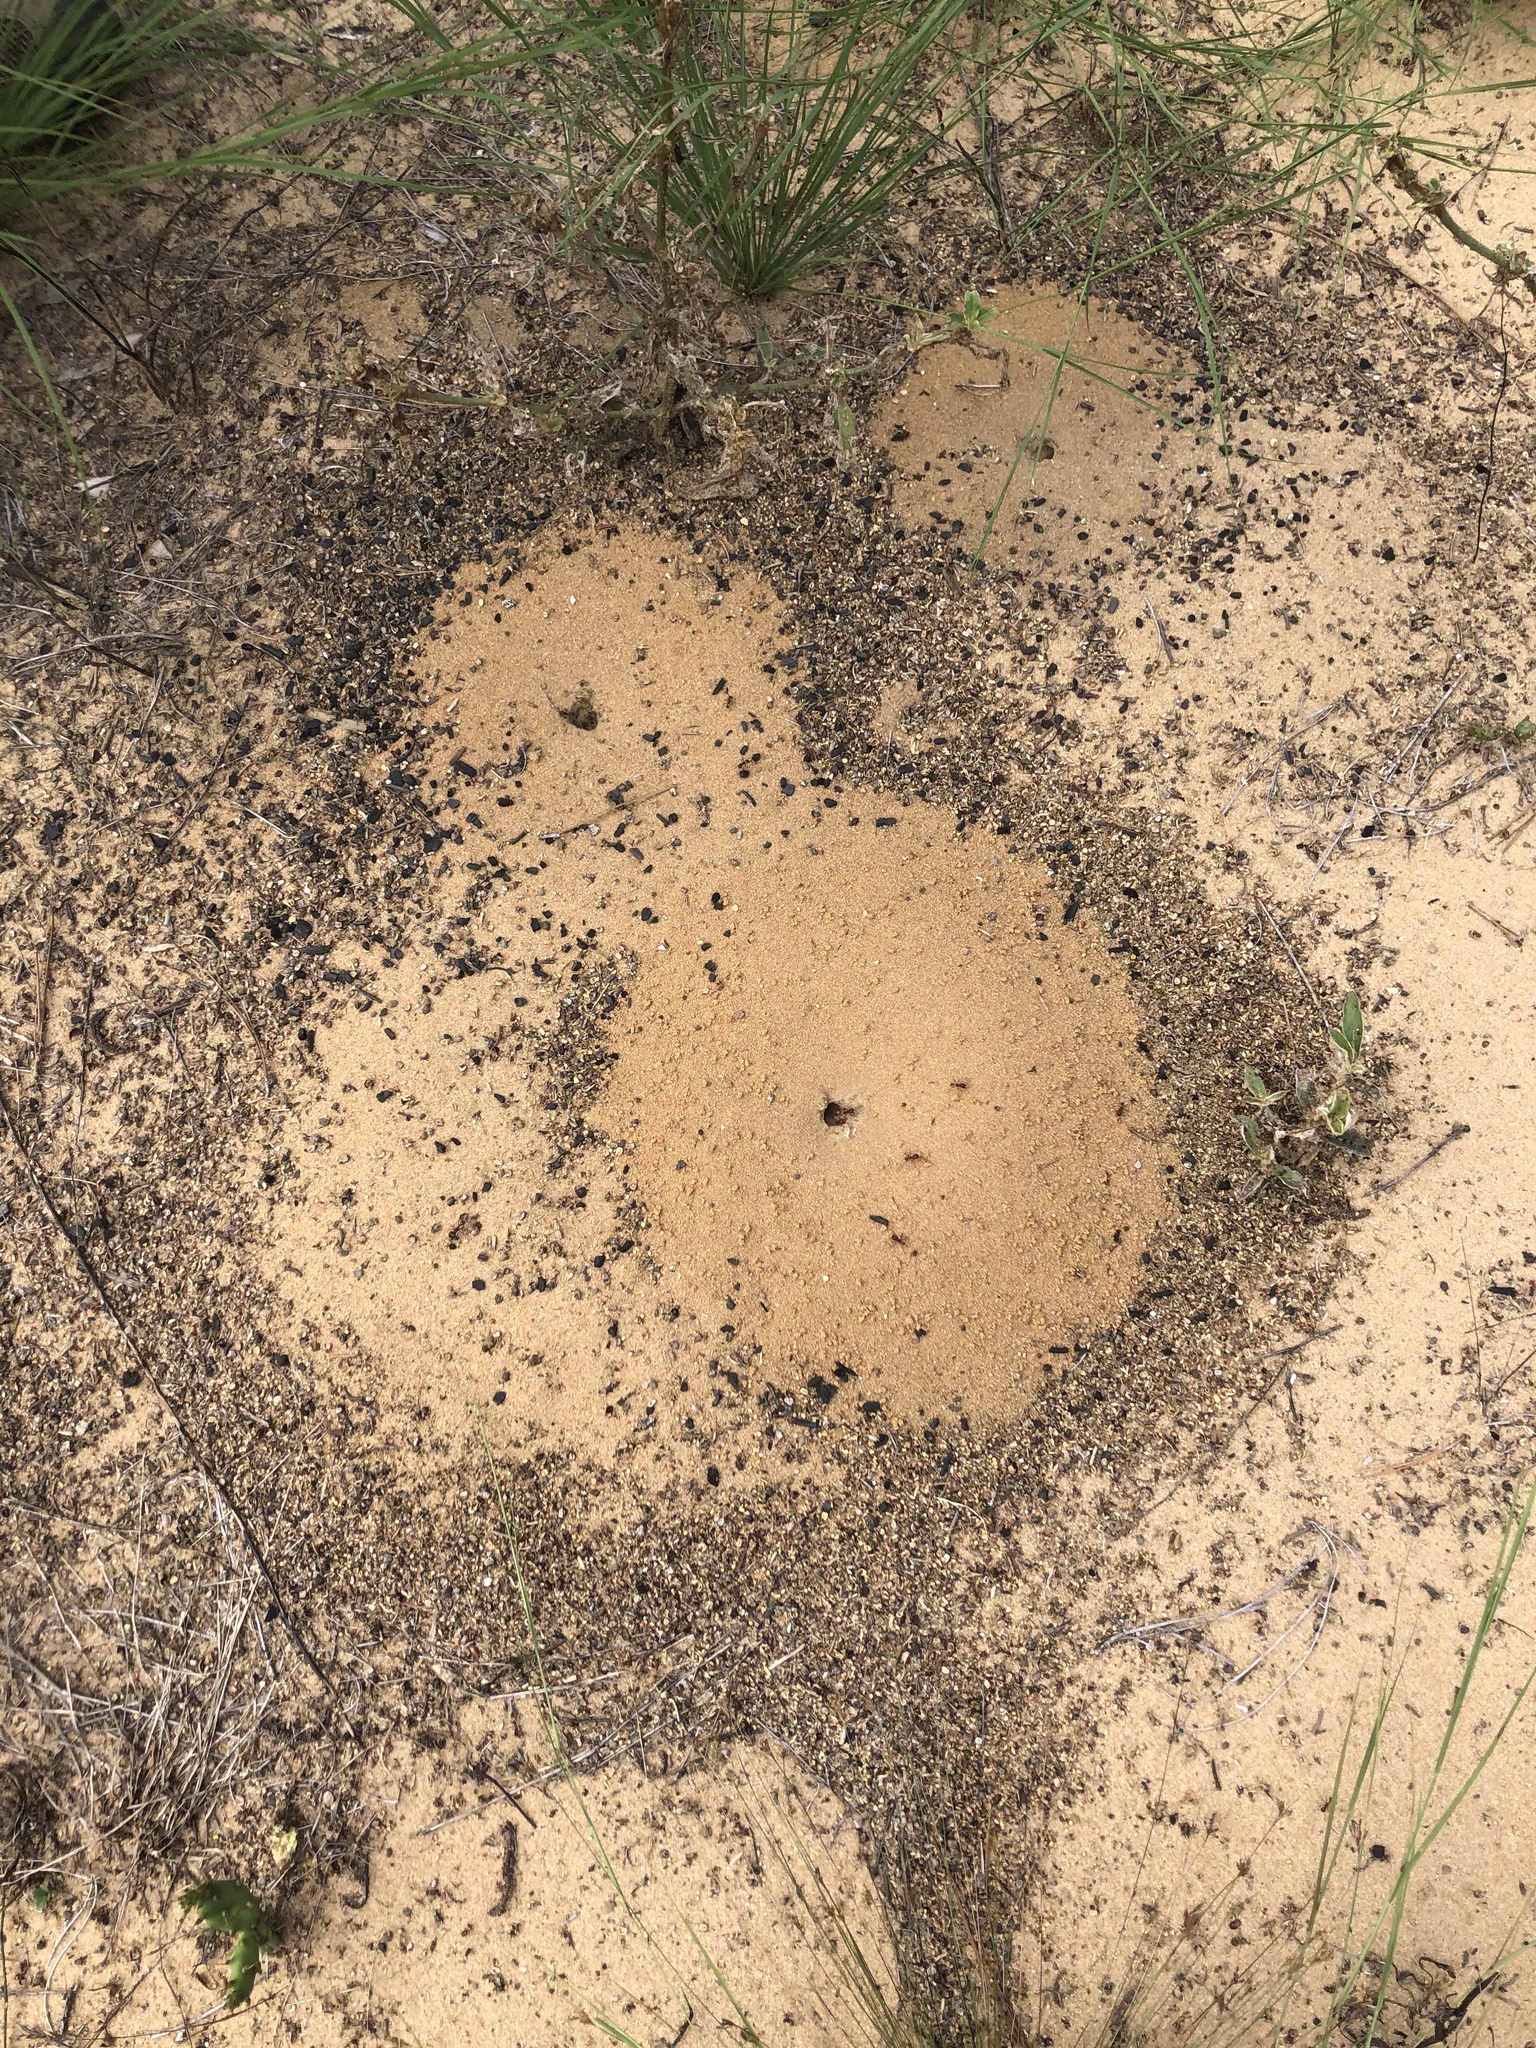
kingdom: Animalia
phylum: Arthropoda
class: Insecta
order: Hymenoptera
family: Formicidae
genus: Pogonomyrmex
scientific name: Pogonomyrmex badius
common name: Florida harvester ant
